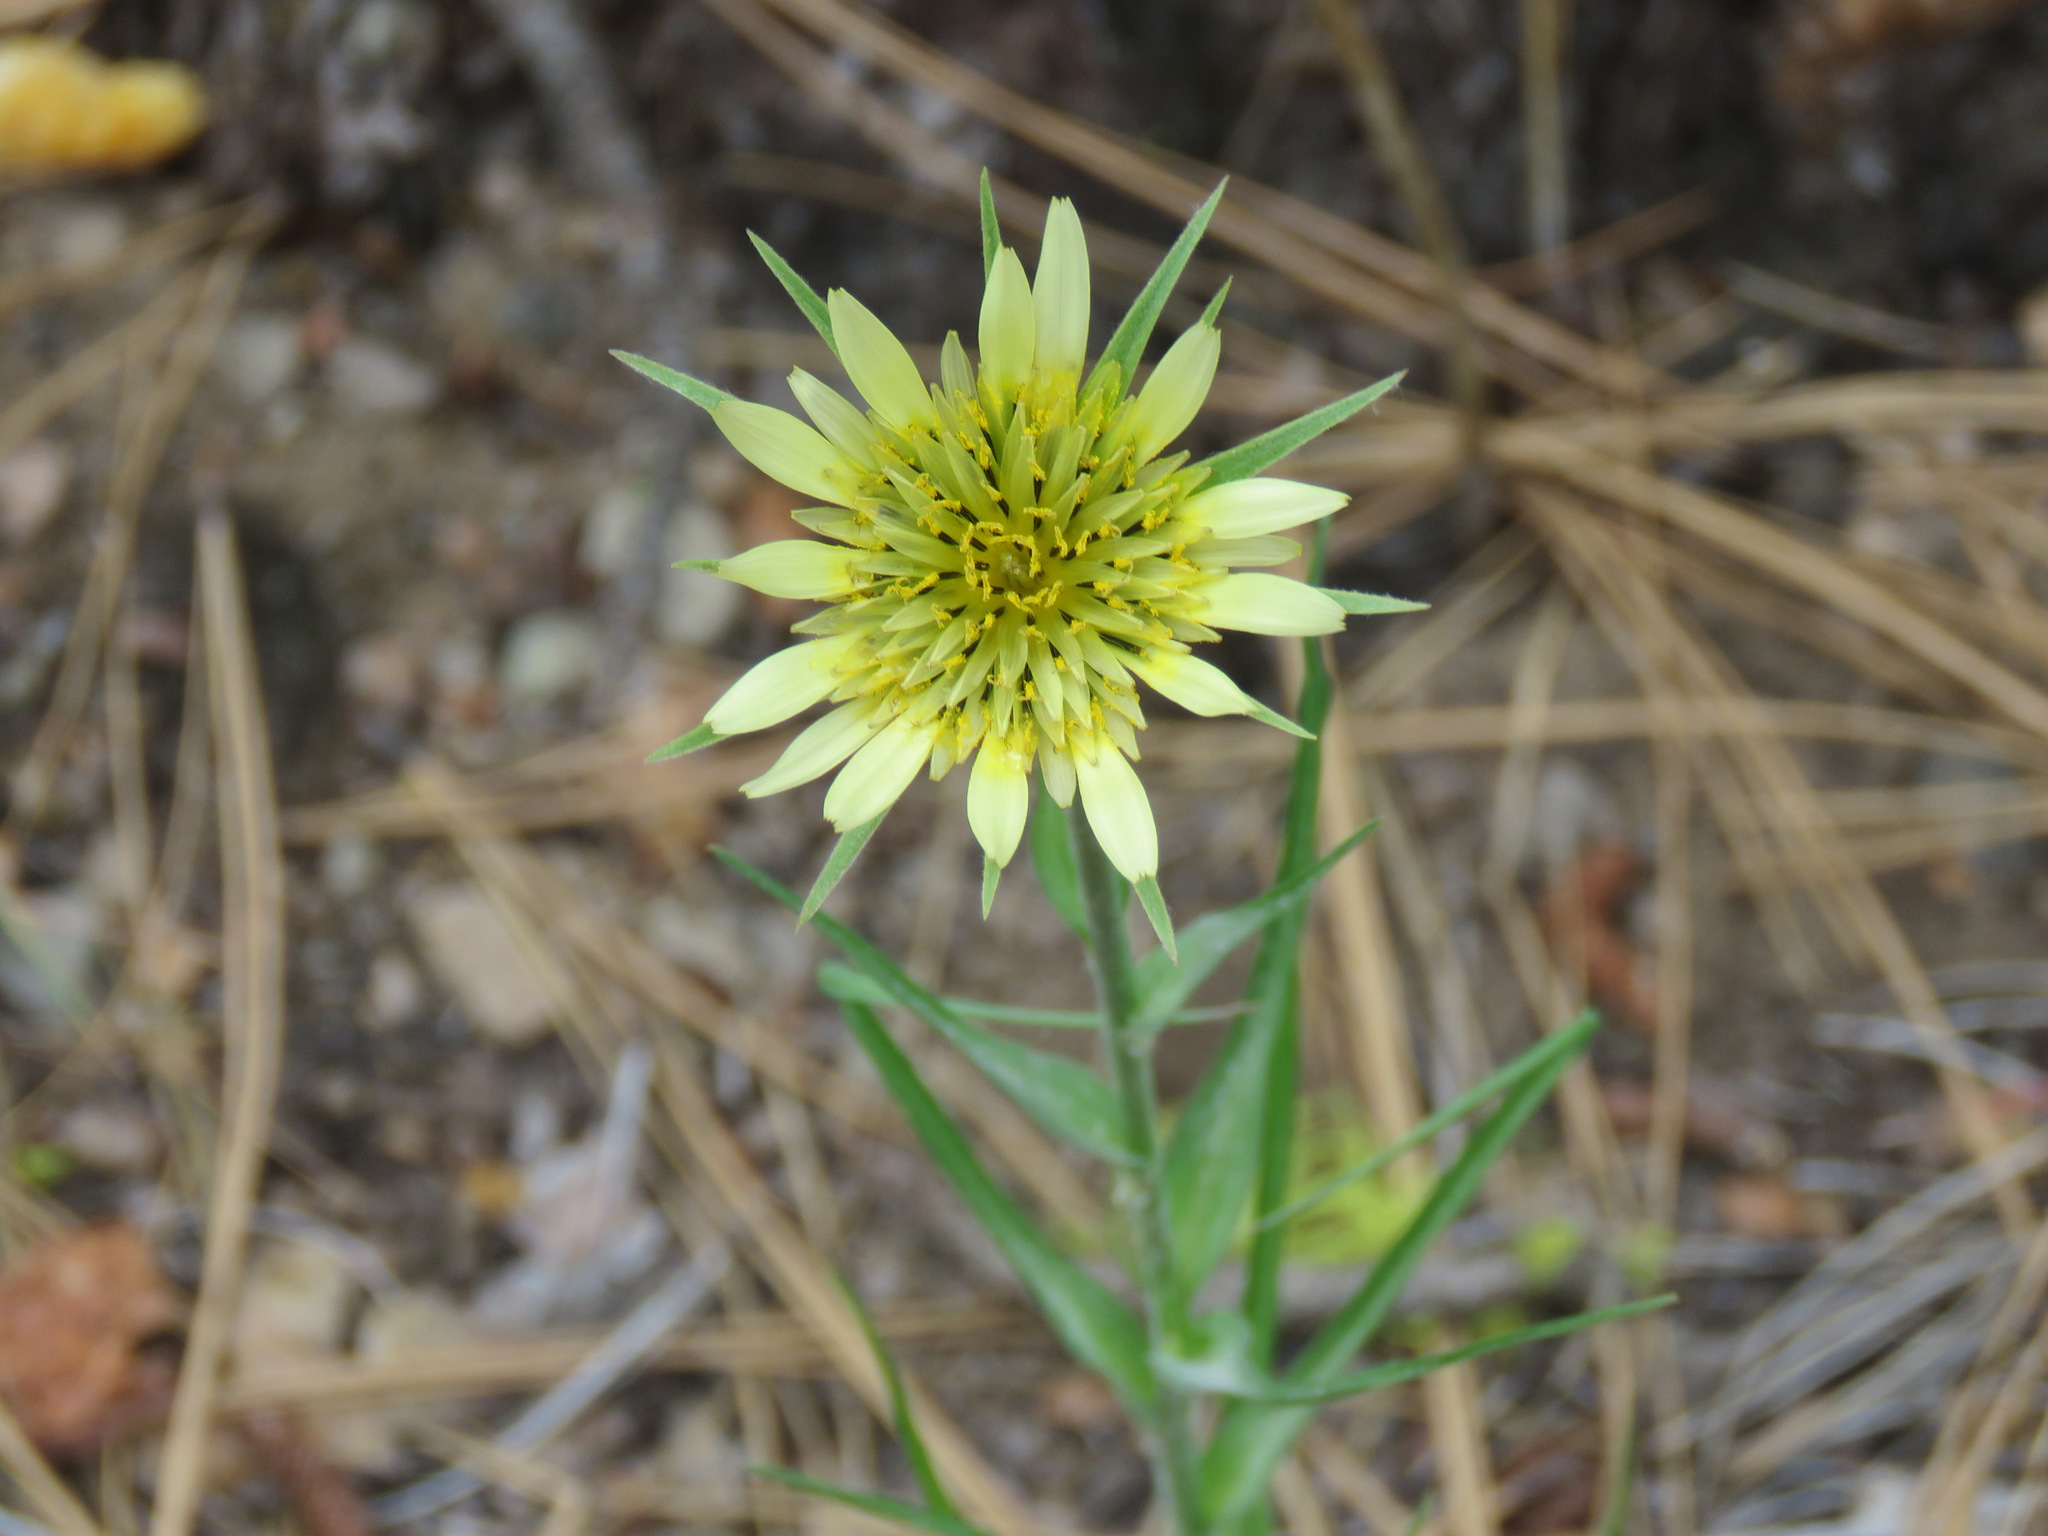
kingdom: Plantae
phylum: Tracheophyta
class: Magnoliopsida
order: Asterales
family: Asteraceae
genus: Tragopogon
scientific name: Tragopogon dubius
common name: Yellow salsify
